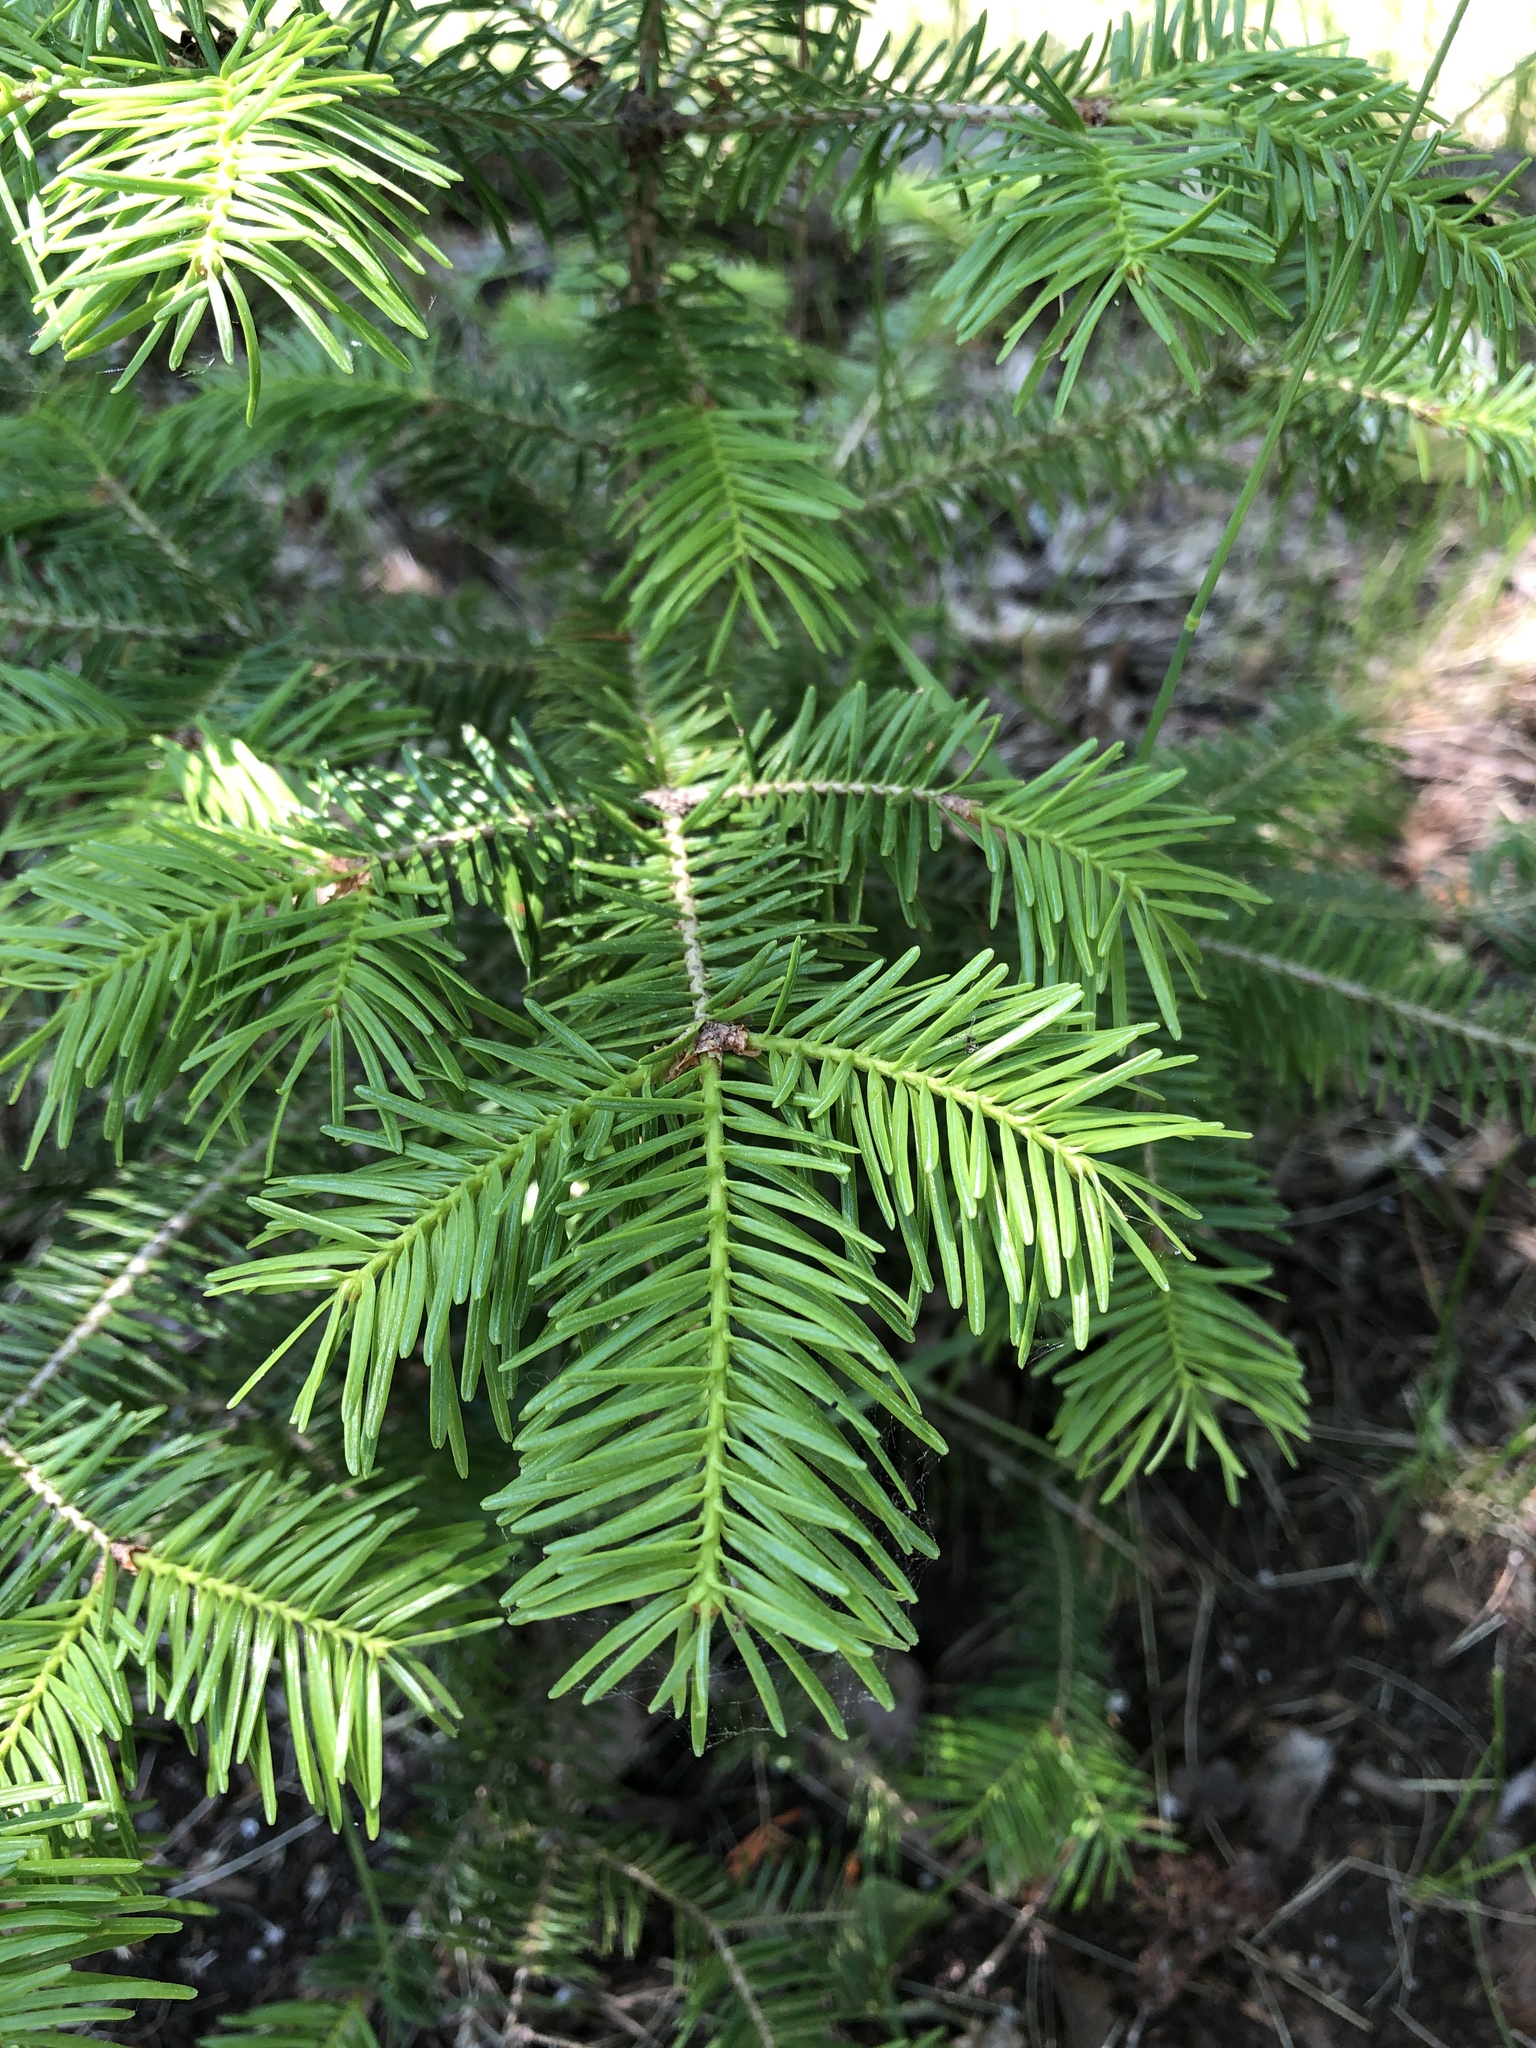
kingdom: Plantae
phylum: Tracheophyta
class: Pinopsida
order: Pinales
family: Pinaceae
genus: Abies
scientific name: Abies balsamea
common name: Balsam fir
